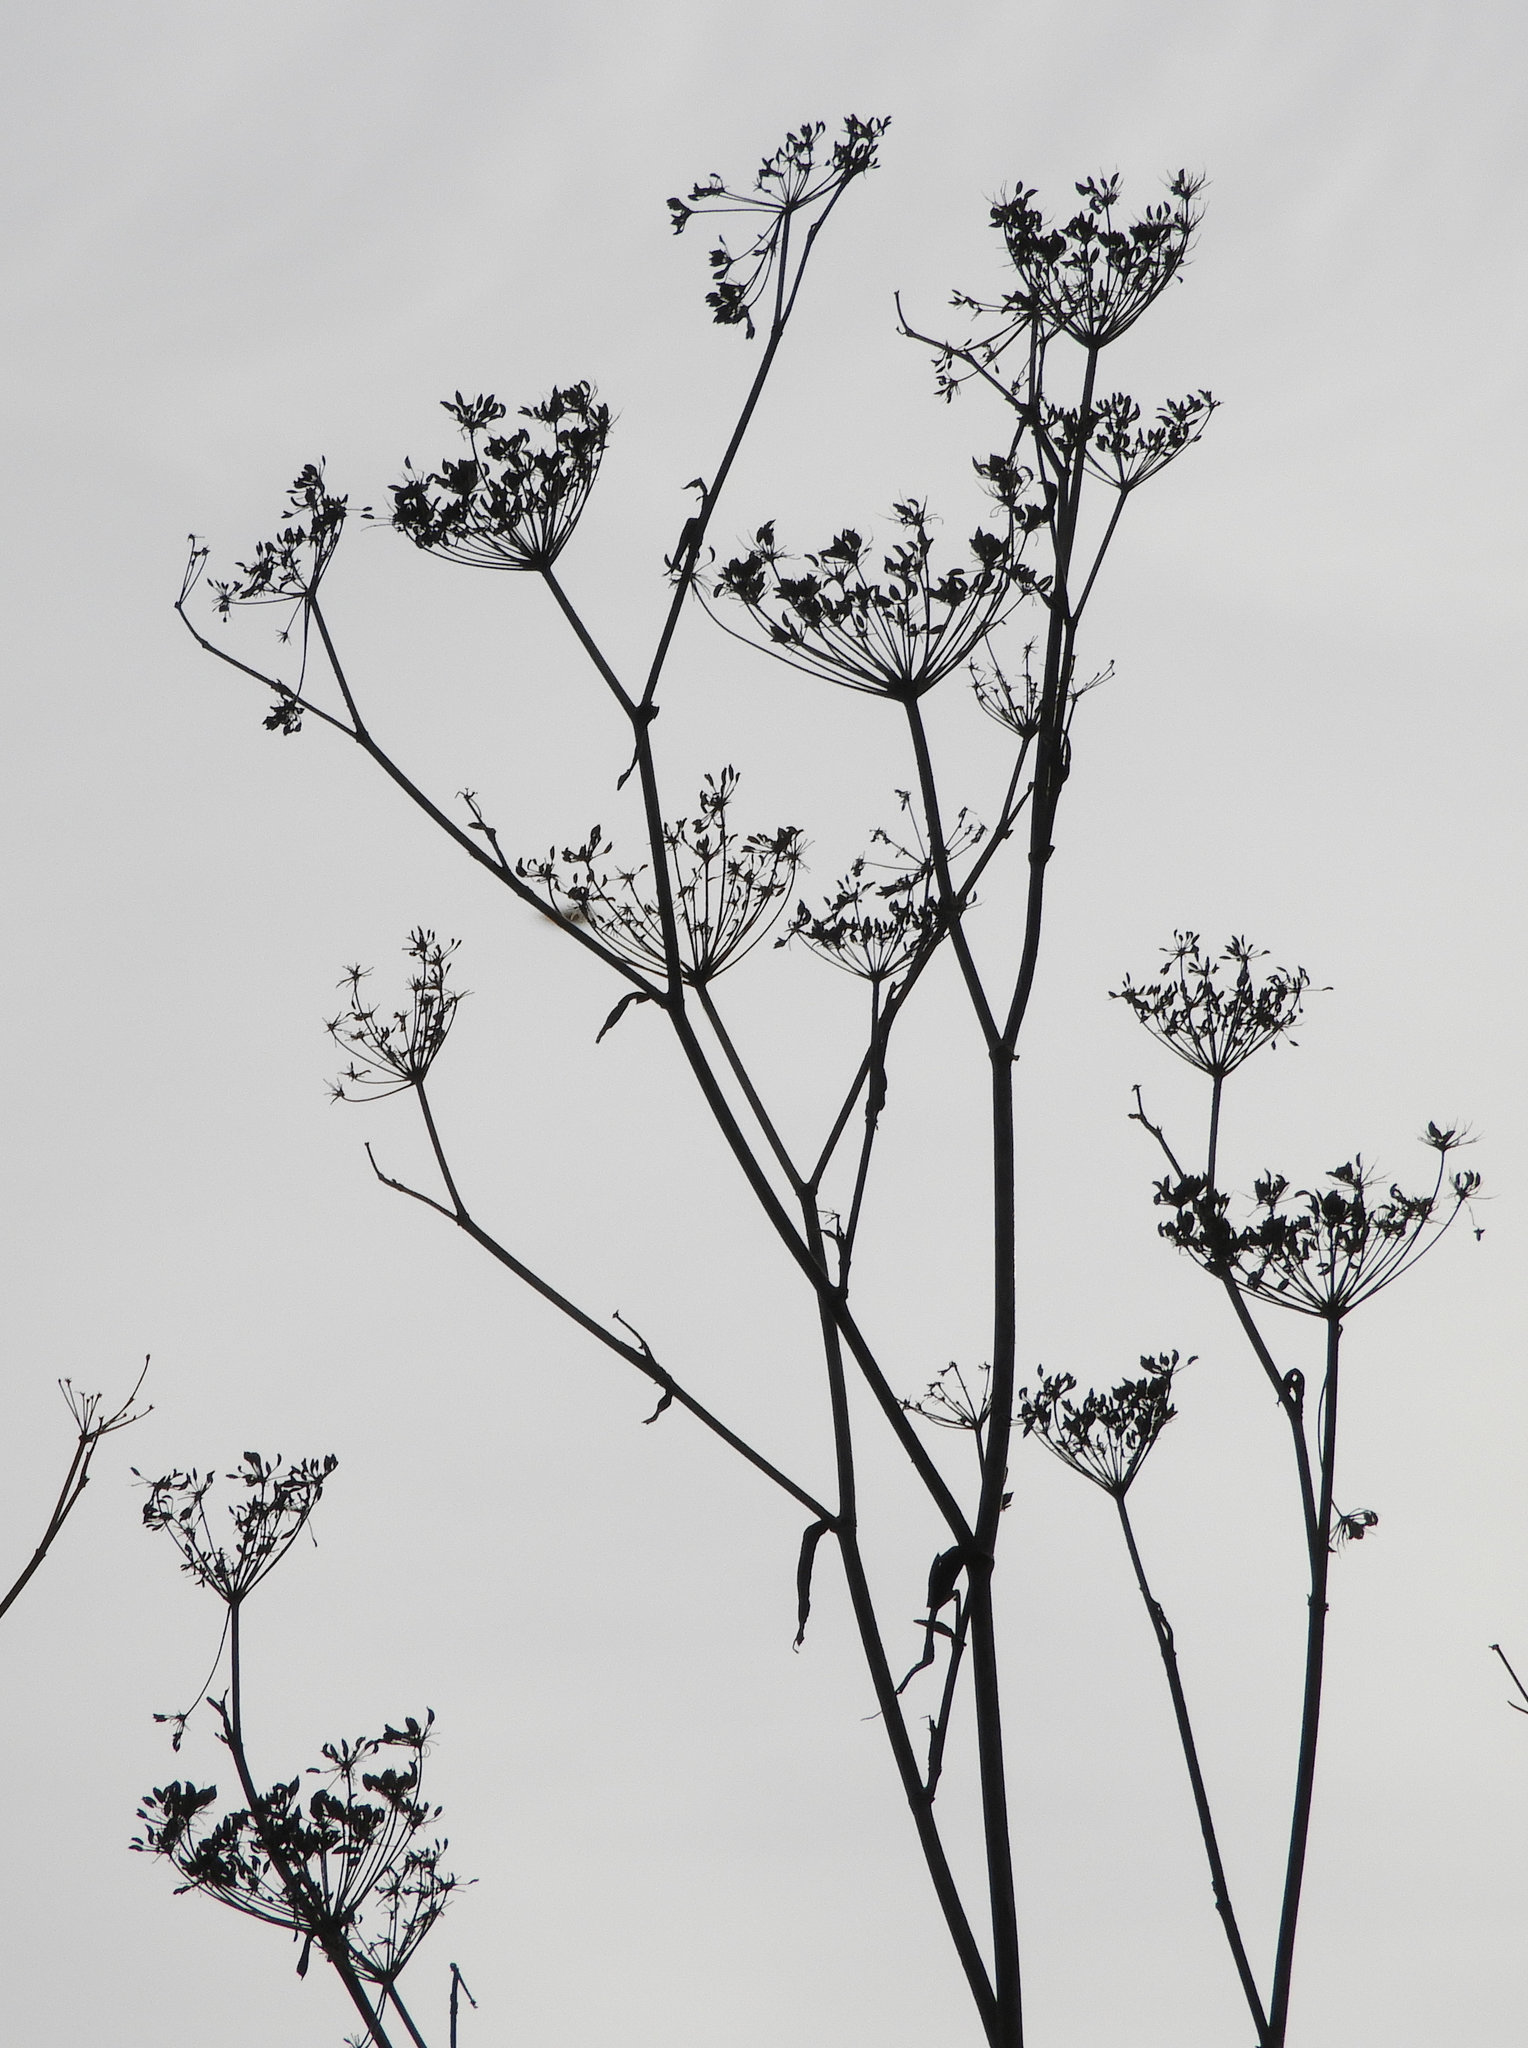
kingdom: Plantae
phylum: Tracheophyta
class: Magnoliopsida
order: Apiales
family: Apiaceae
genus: Foeniculum
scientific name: Foeniculum vulgare
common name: Fennel
